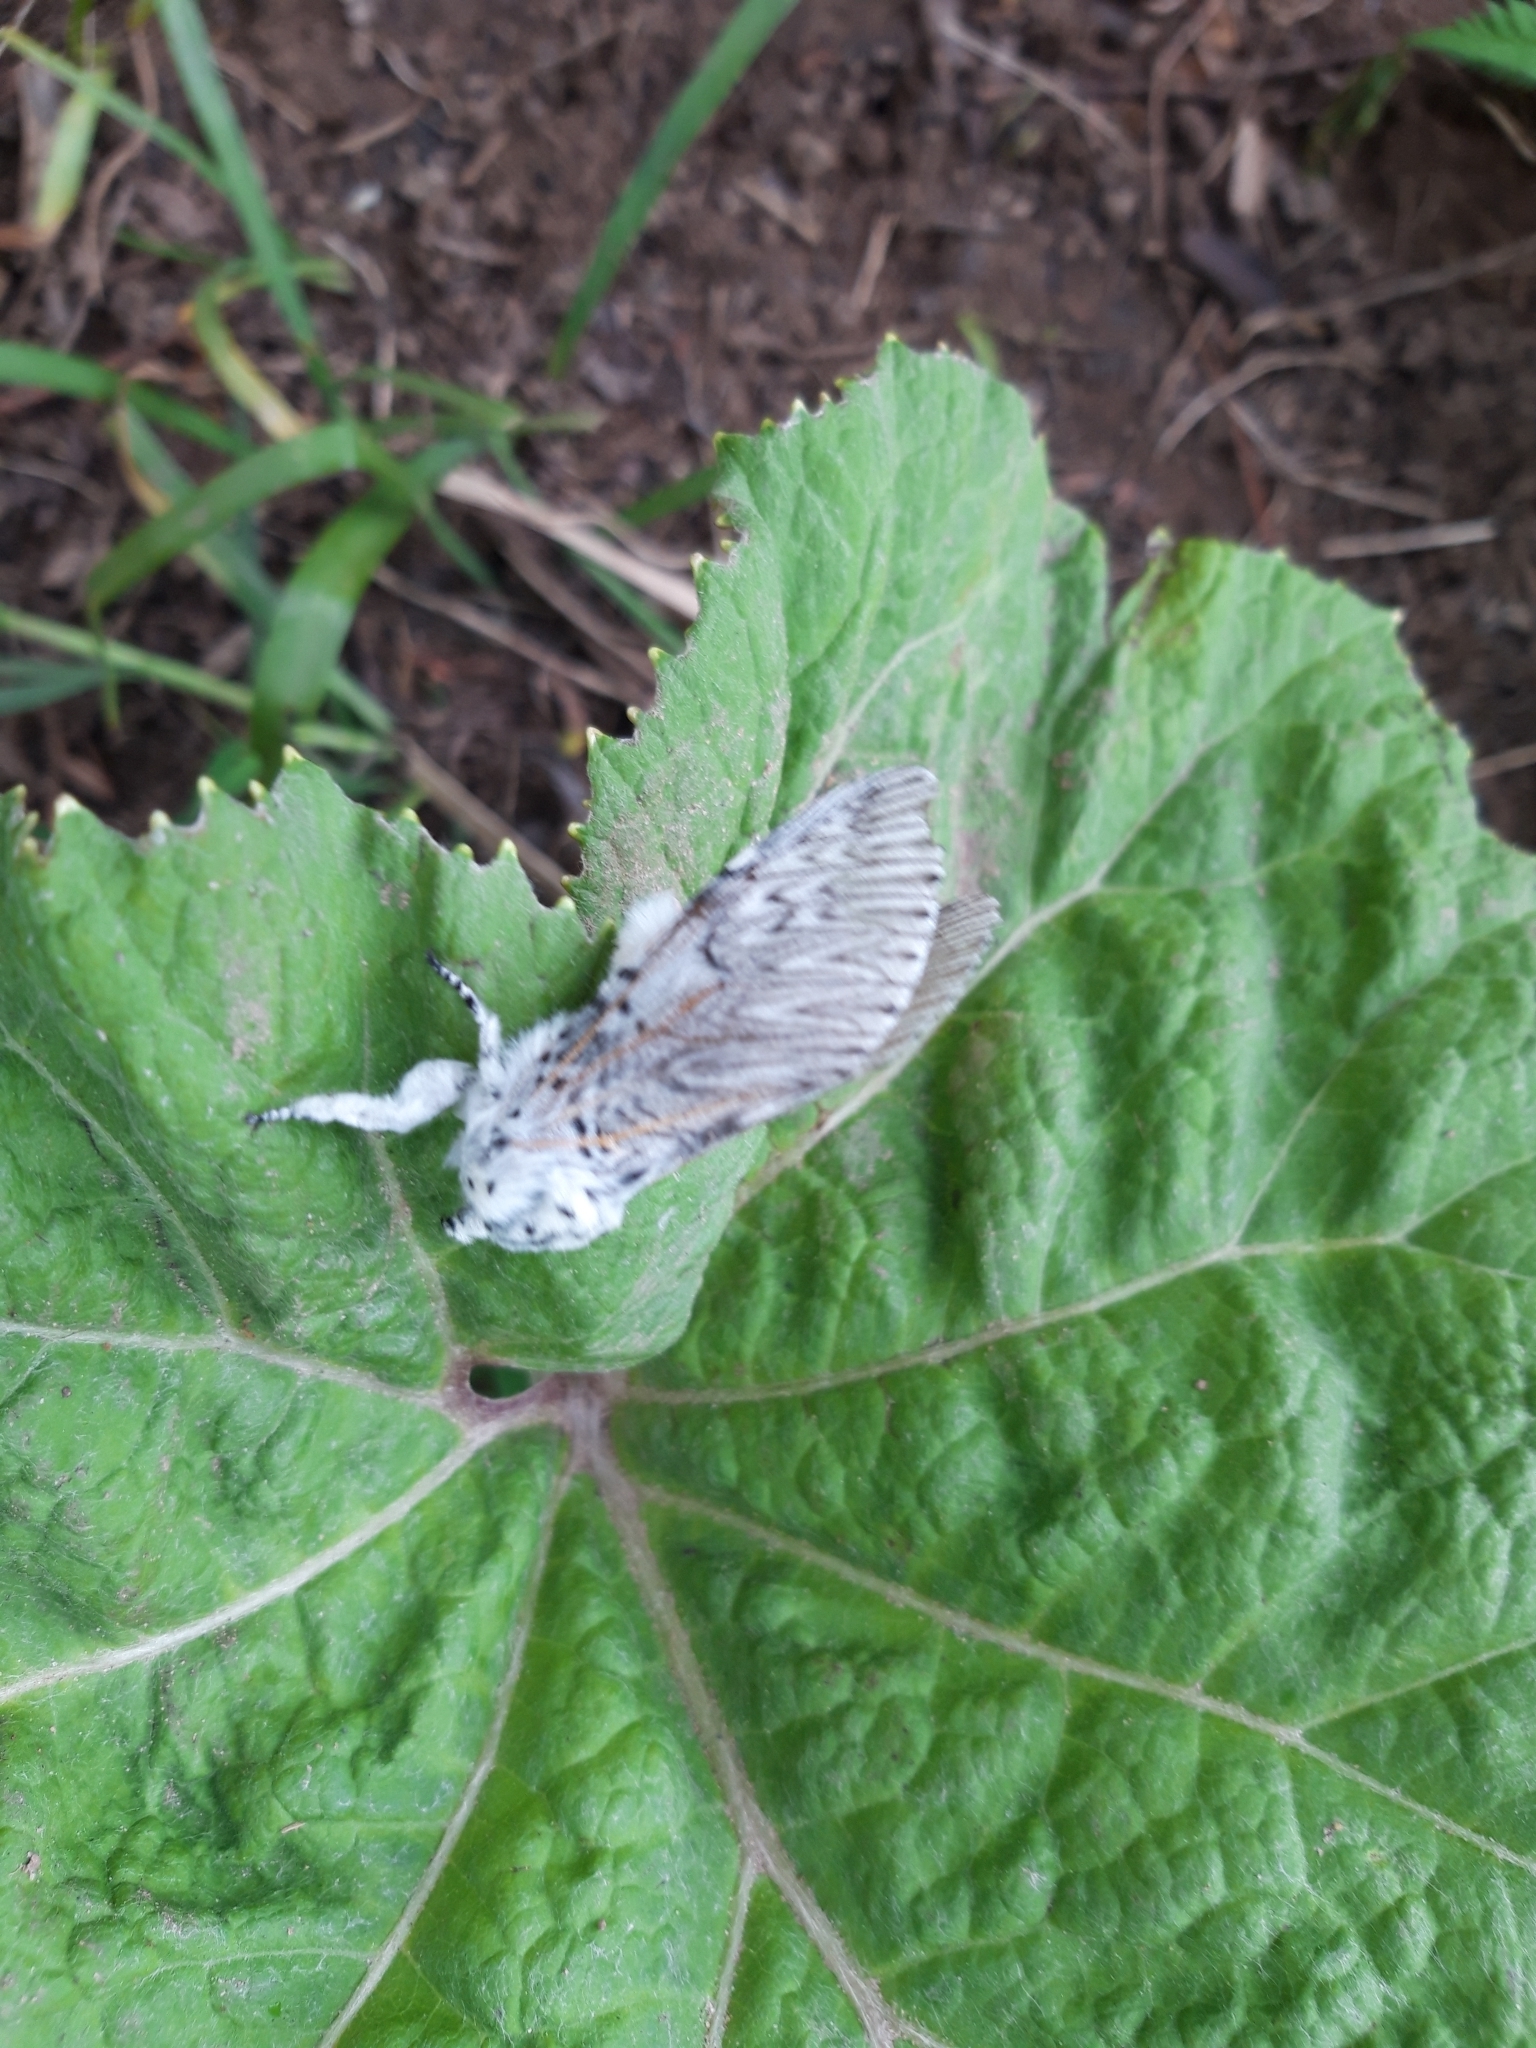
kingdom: Animalia
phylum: Arthropoda
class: Insecta
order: Lepidoptera
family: Notodontidae
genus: Cerura
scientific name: Cerura vinula
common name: Puss moth
